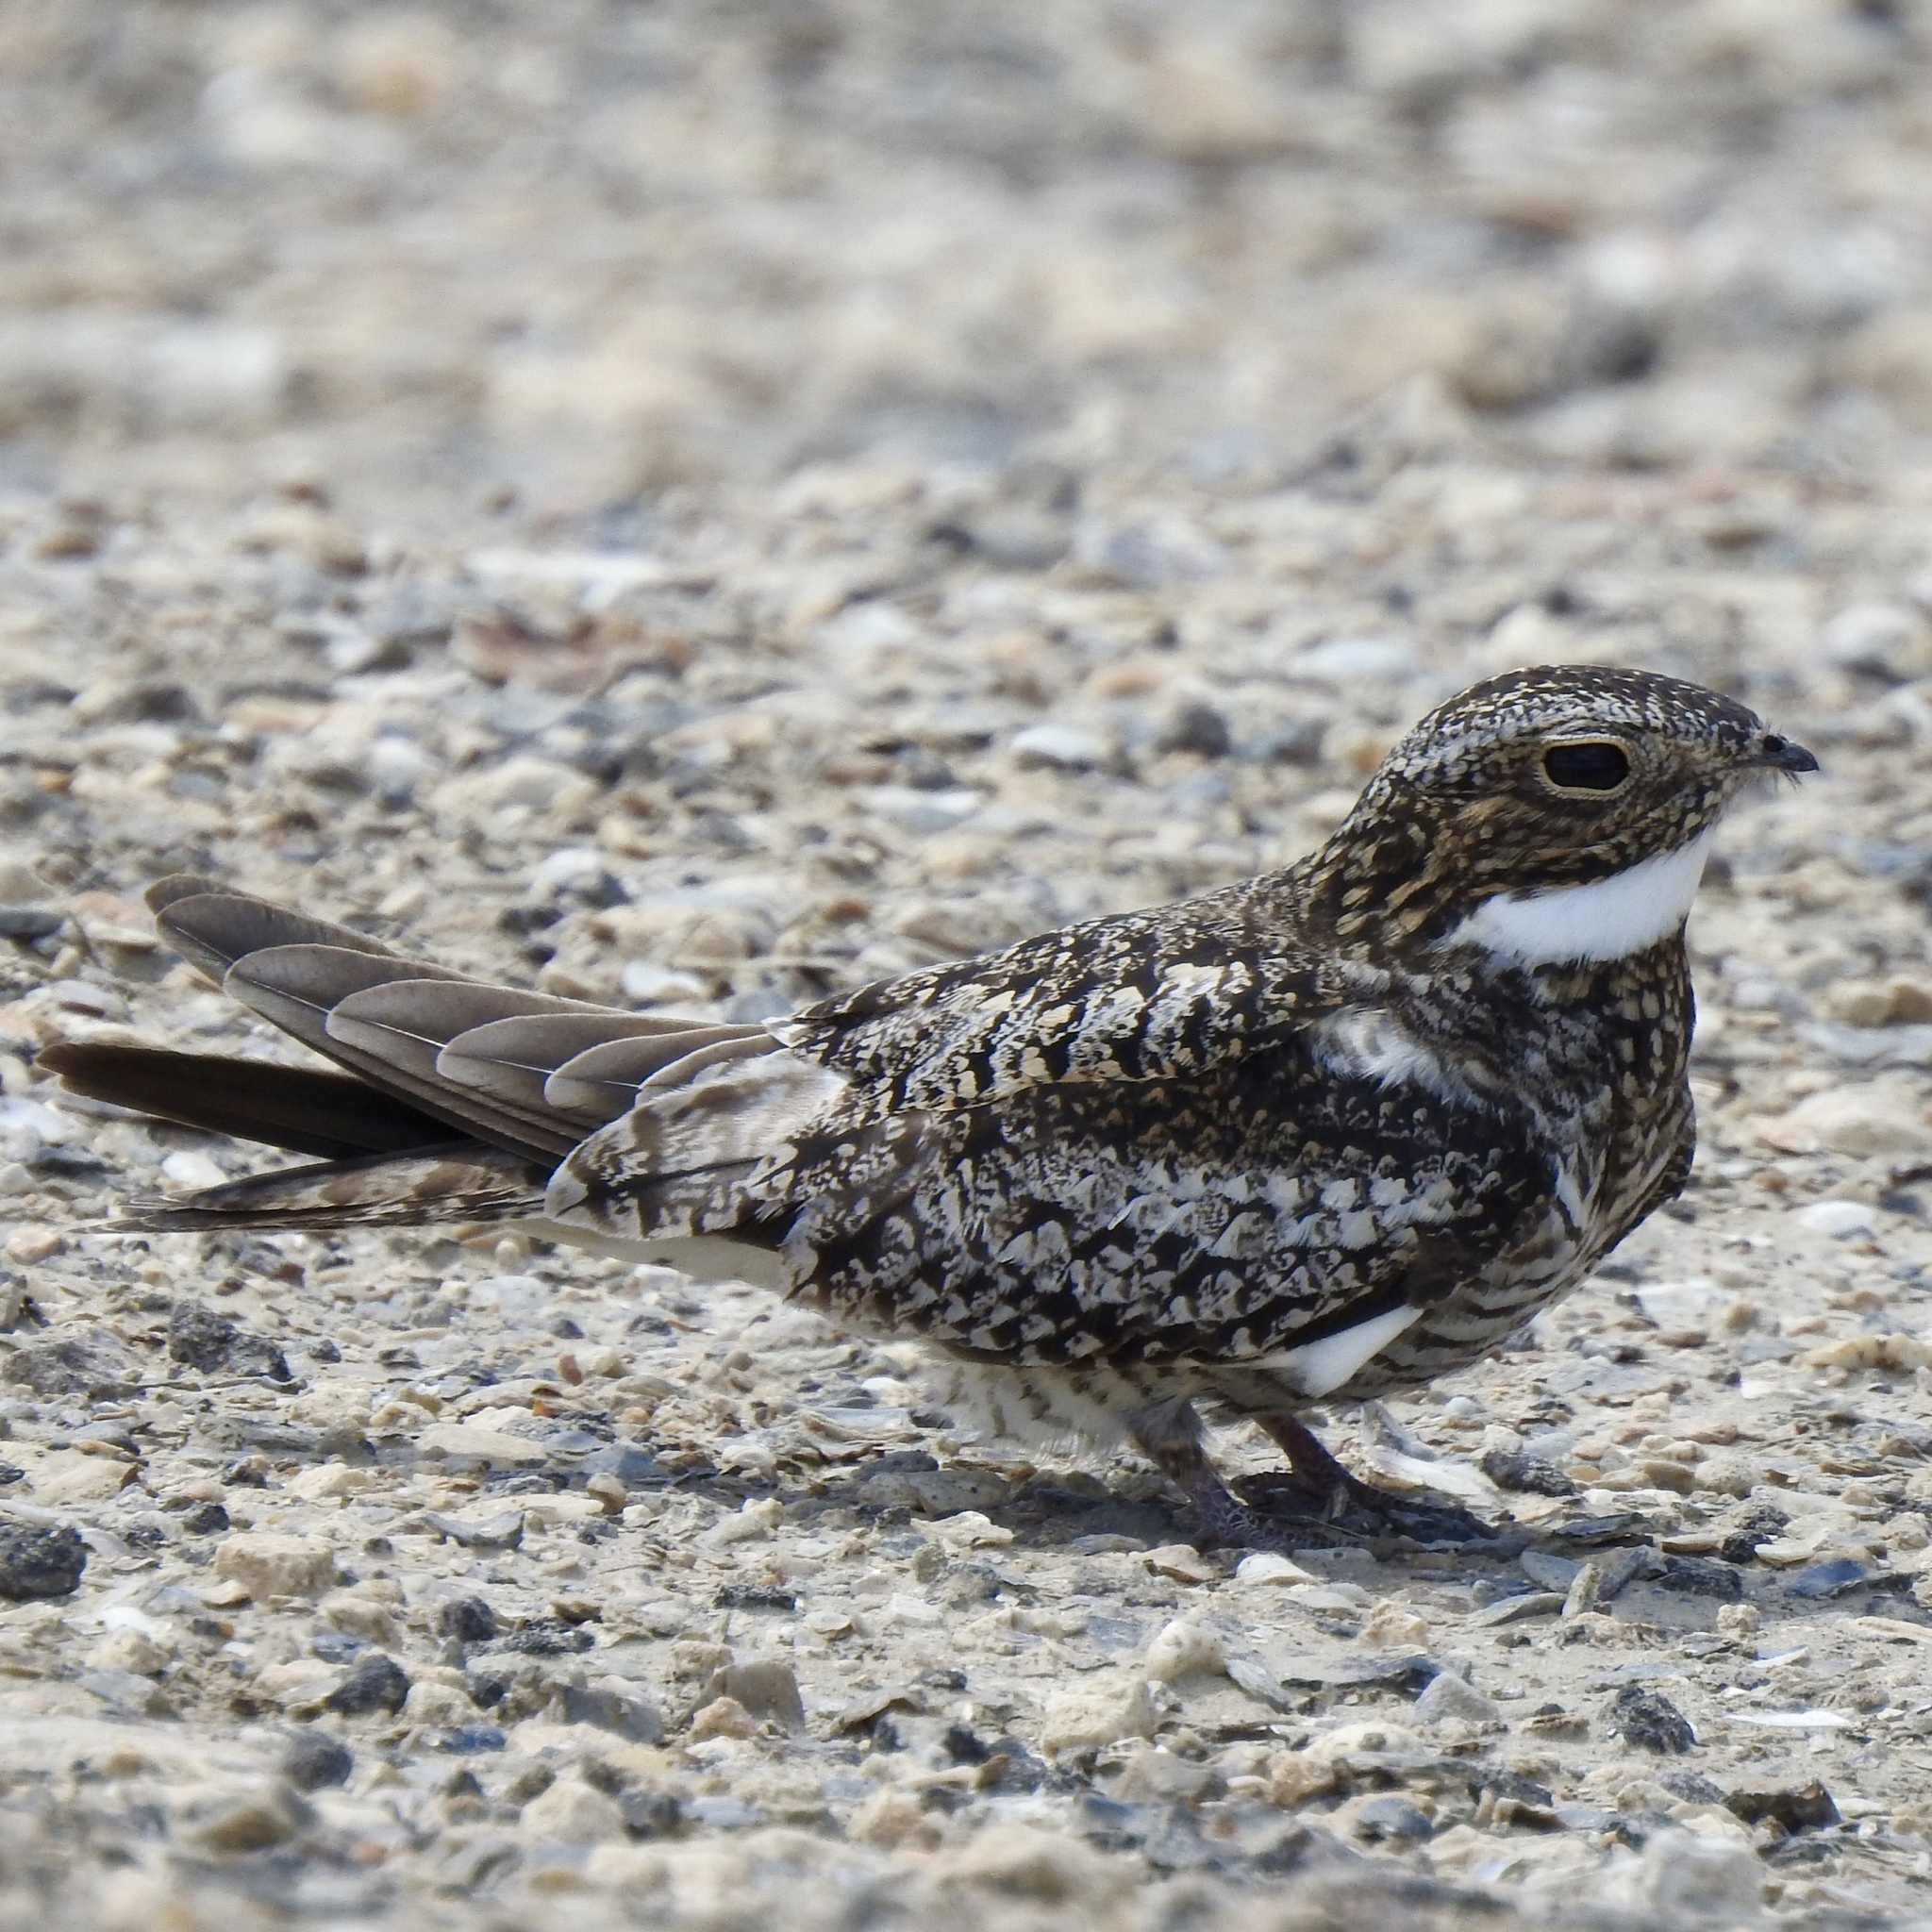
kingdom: Animalia
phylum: Chordata
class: Aves
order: Caprimulgiformes
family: Caprimulgidae
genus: Chordeiles
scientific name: Chordeiles minor
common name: Common nighthawk
